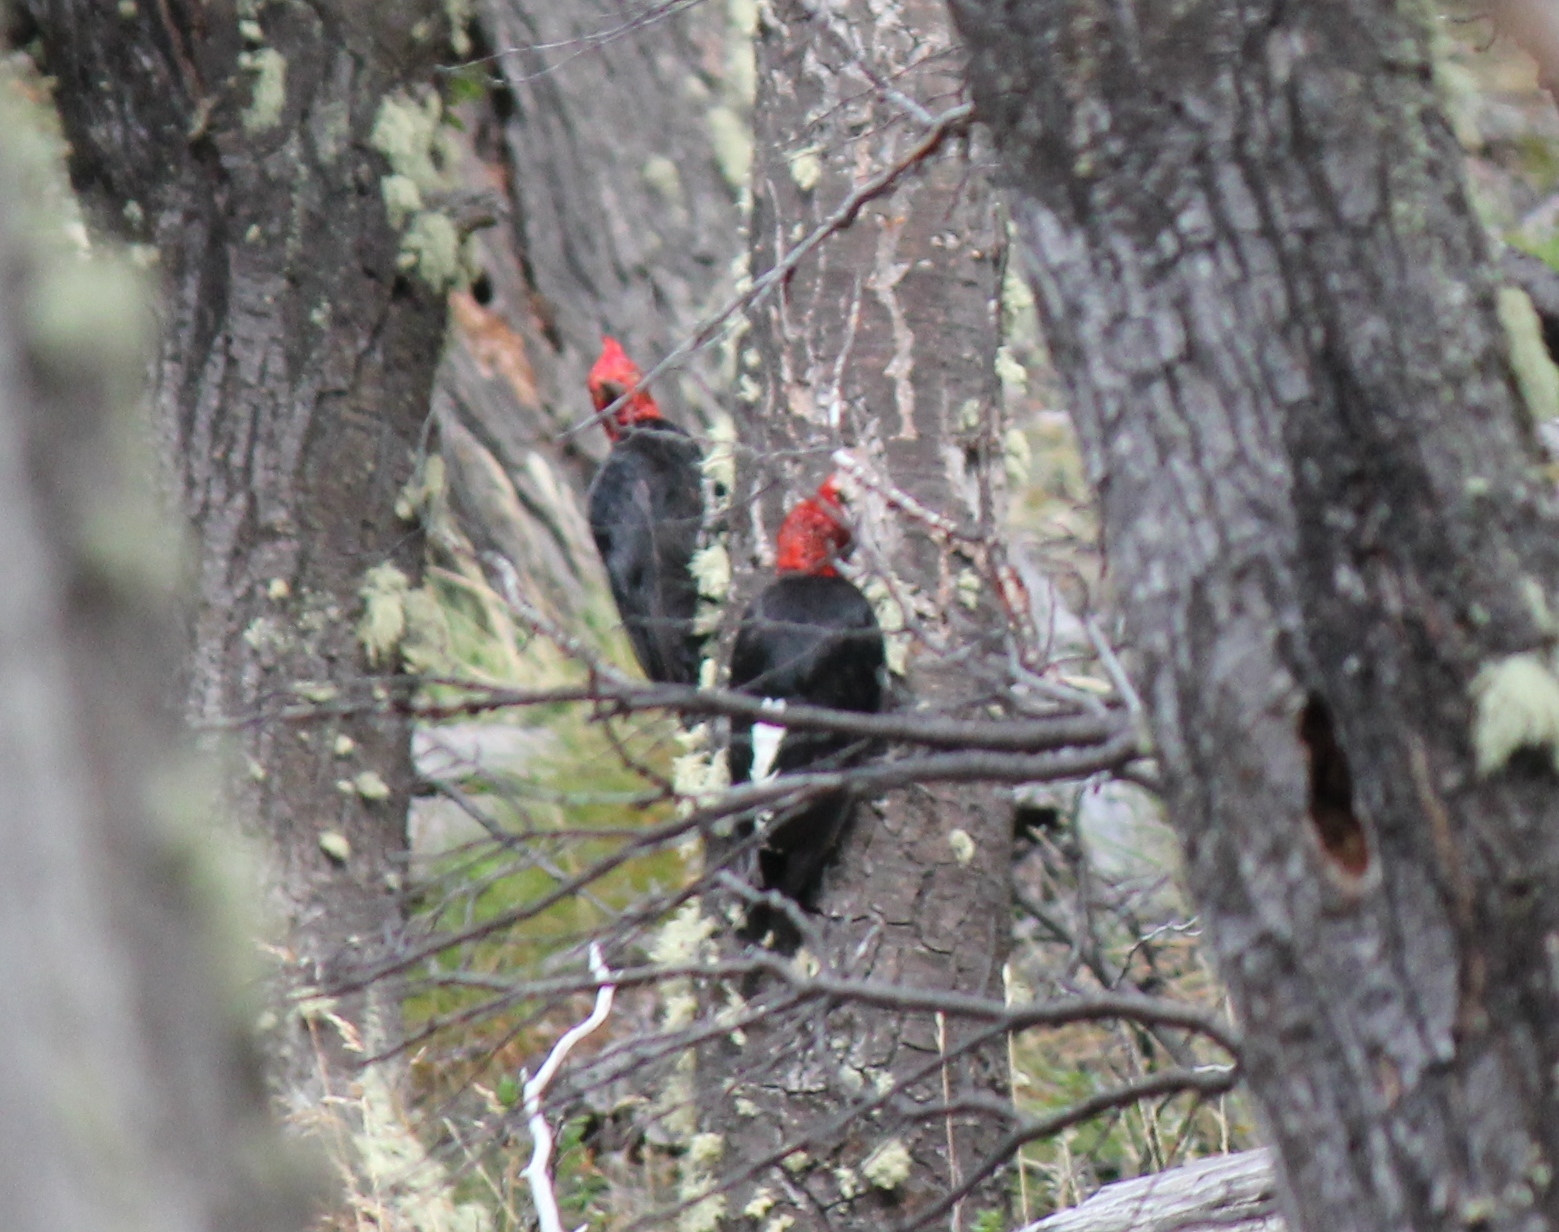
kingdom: Animalia
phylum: Chordata
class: Aves
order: Piciformes
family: Picidae
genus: Campephilus
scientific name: Campephilus magellanicus
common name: Magellanic woodpecker
